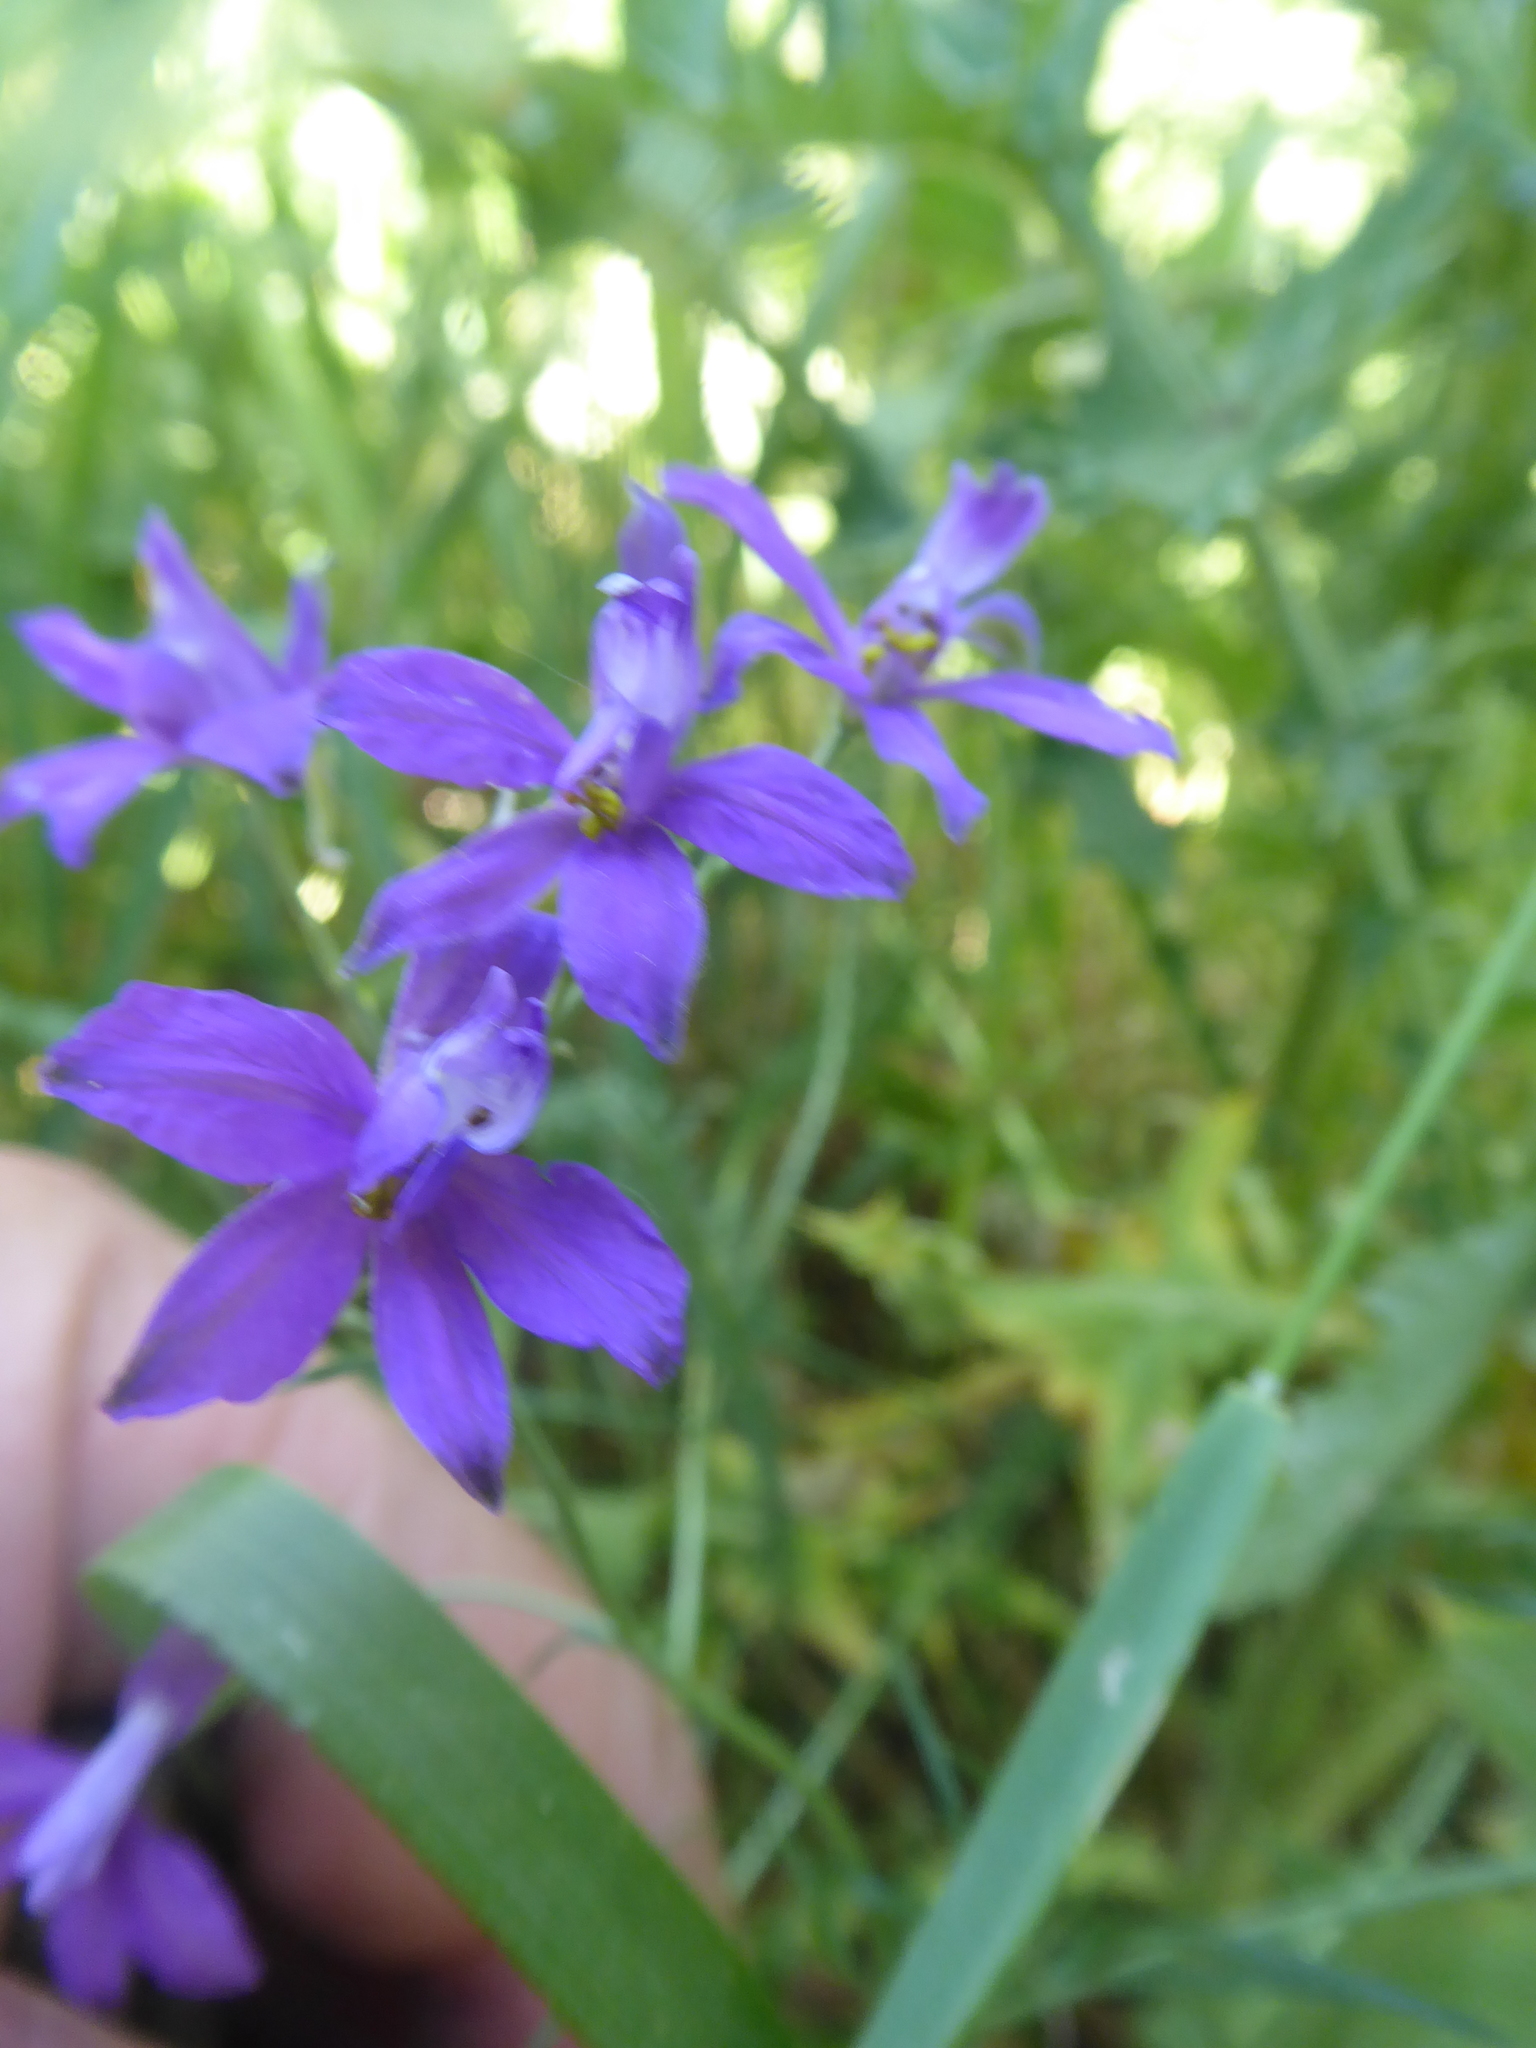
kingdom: Plantae
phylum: Tracheophyta
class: Magnoliopsida
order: Ranunculales
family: Ranunculaceae
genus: Delphinium
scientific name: Delphinium consolida
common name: Branching larkspur
